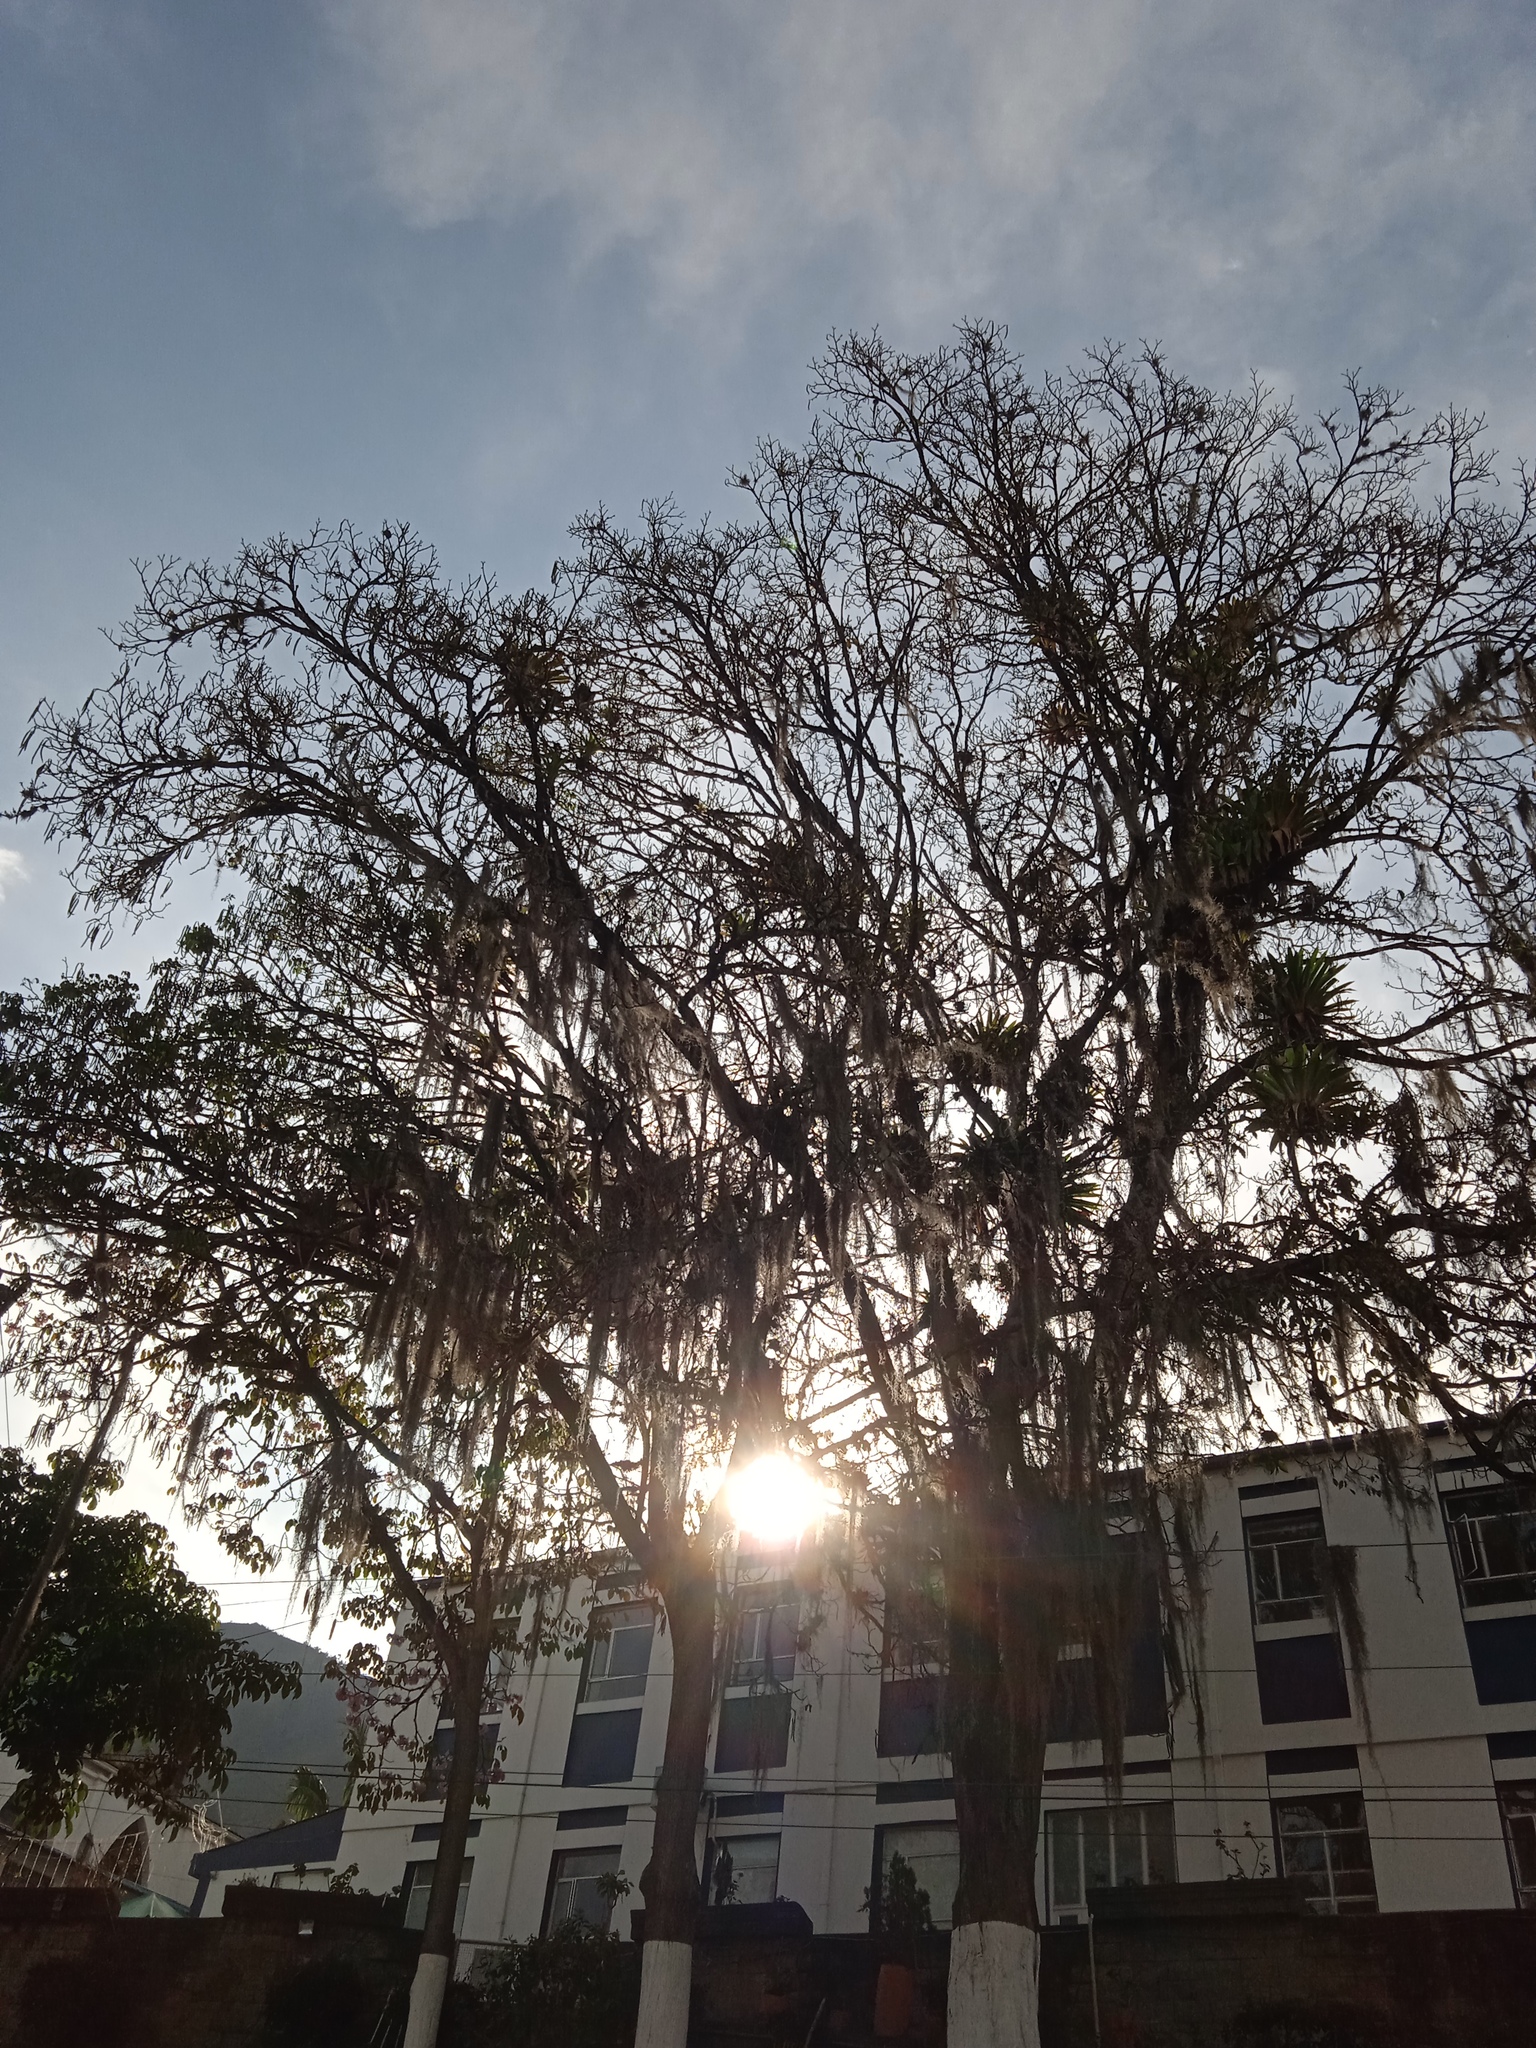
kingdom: Plantae
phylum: Tracheophyta
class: Liliopsida
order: Poales
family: Bromeliaceae
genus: Tillandsia
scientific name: Tillandsia usneoides
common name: Spanish moss
